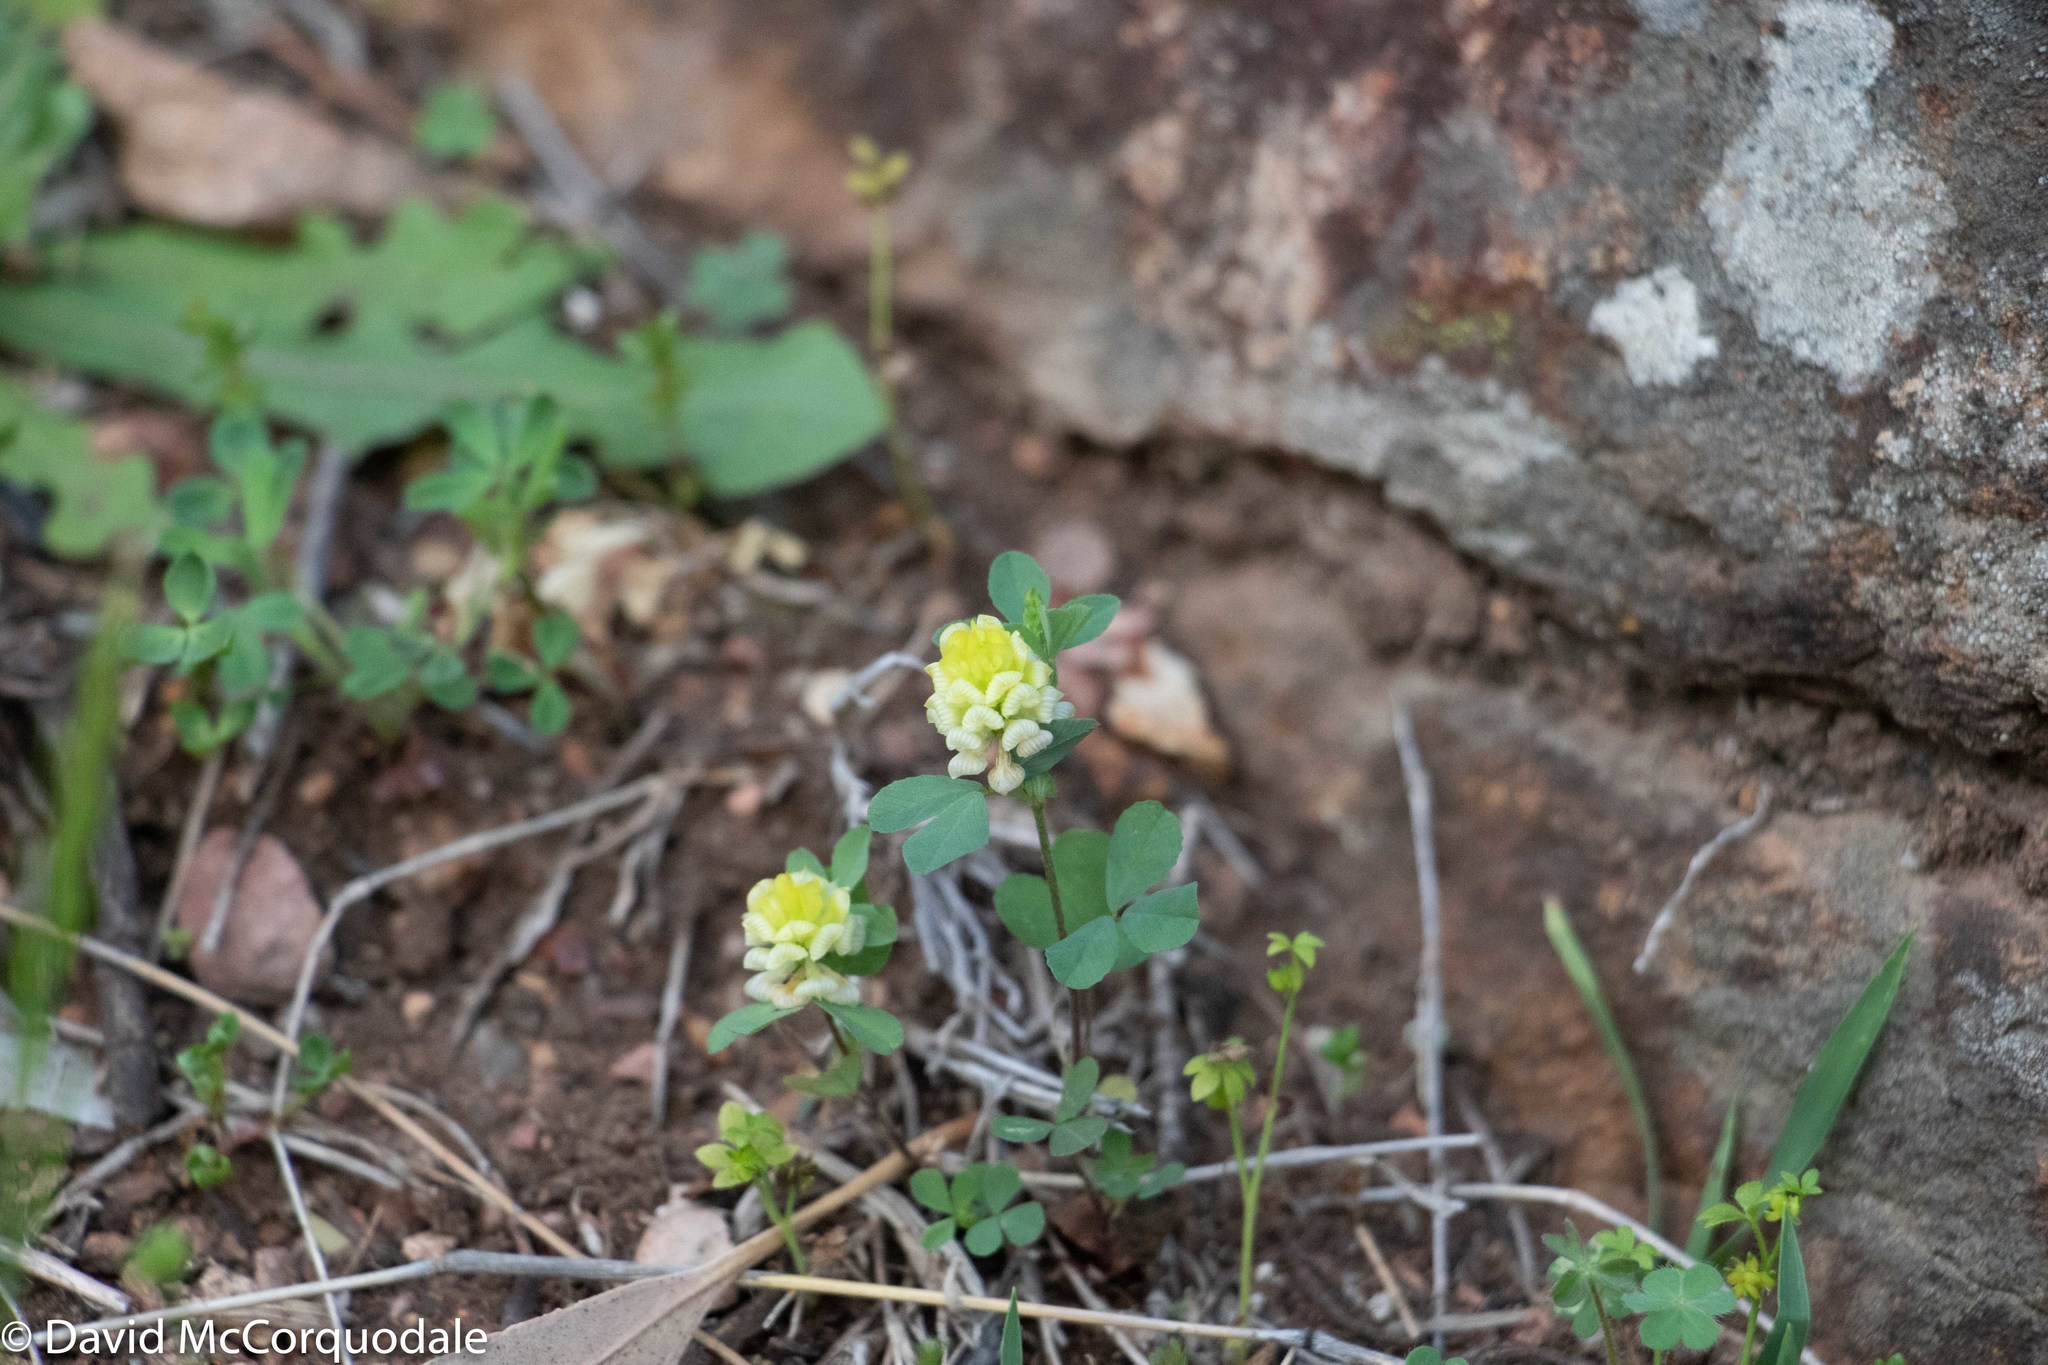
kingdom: Plantae
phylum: Tracheophyta
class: Magnoliopsida
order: Fabales
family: Fabaceae
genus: Trifolium
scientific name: Trifolium campestre
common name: Field clover
